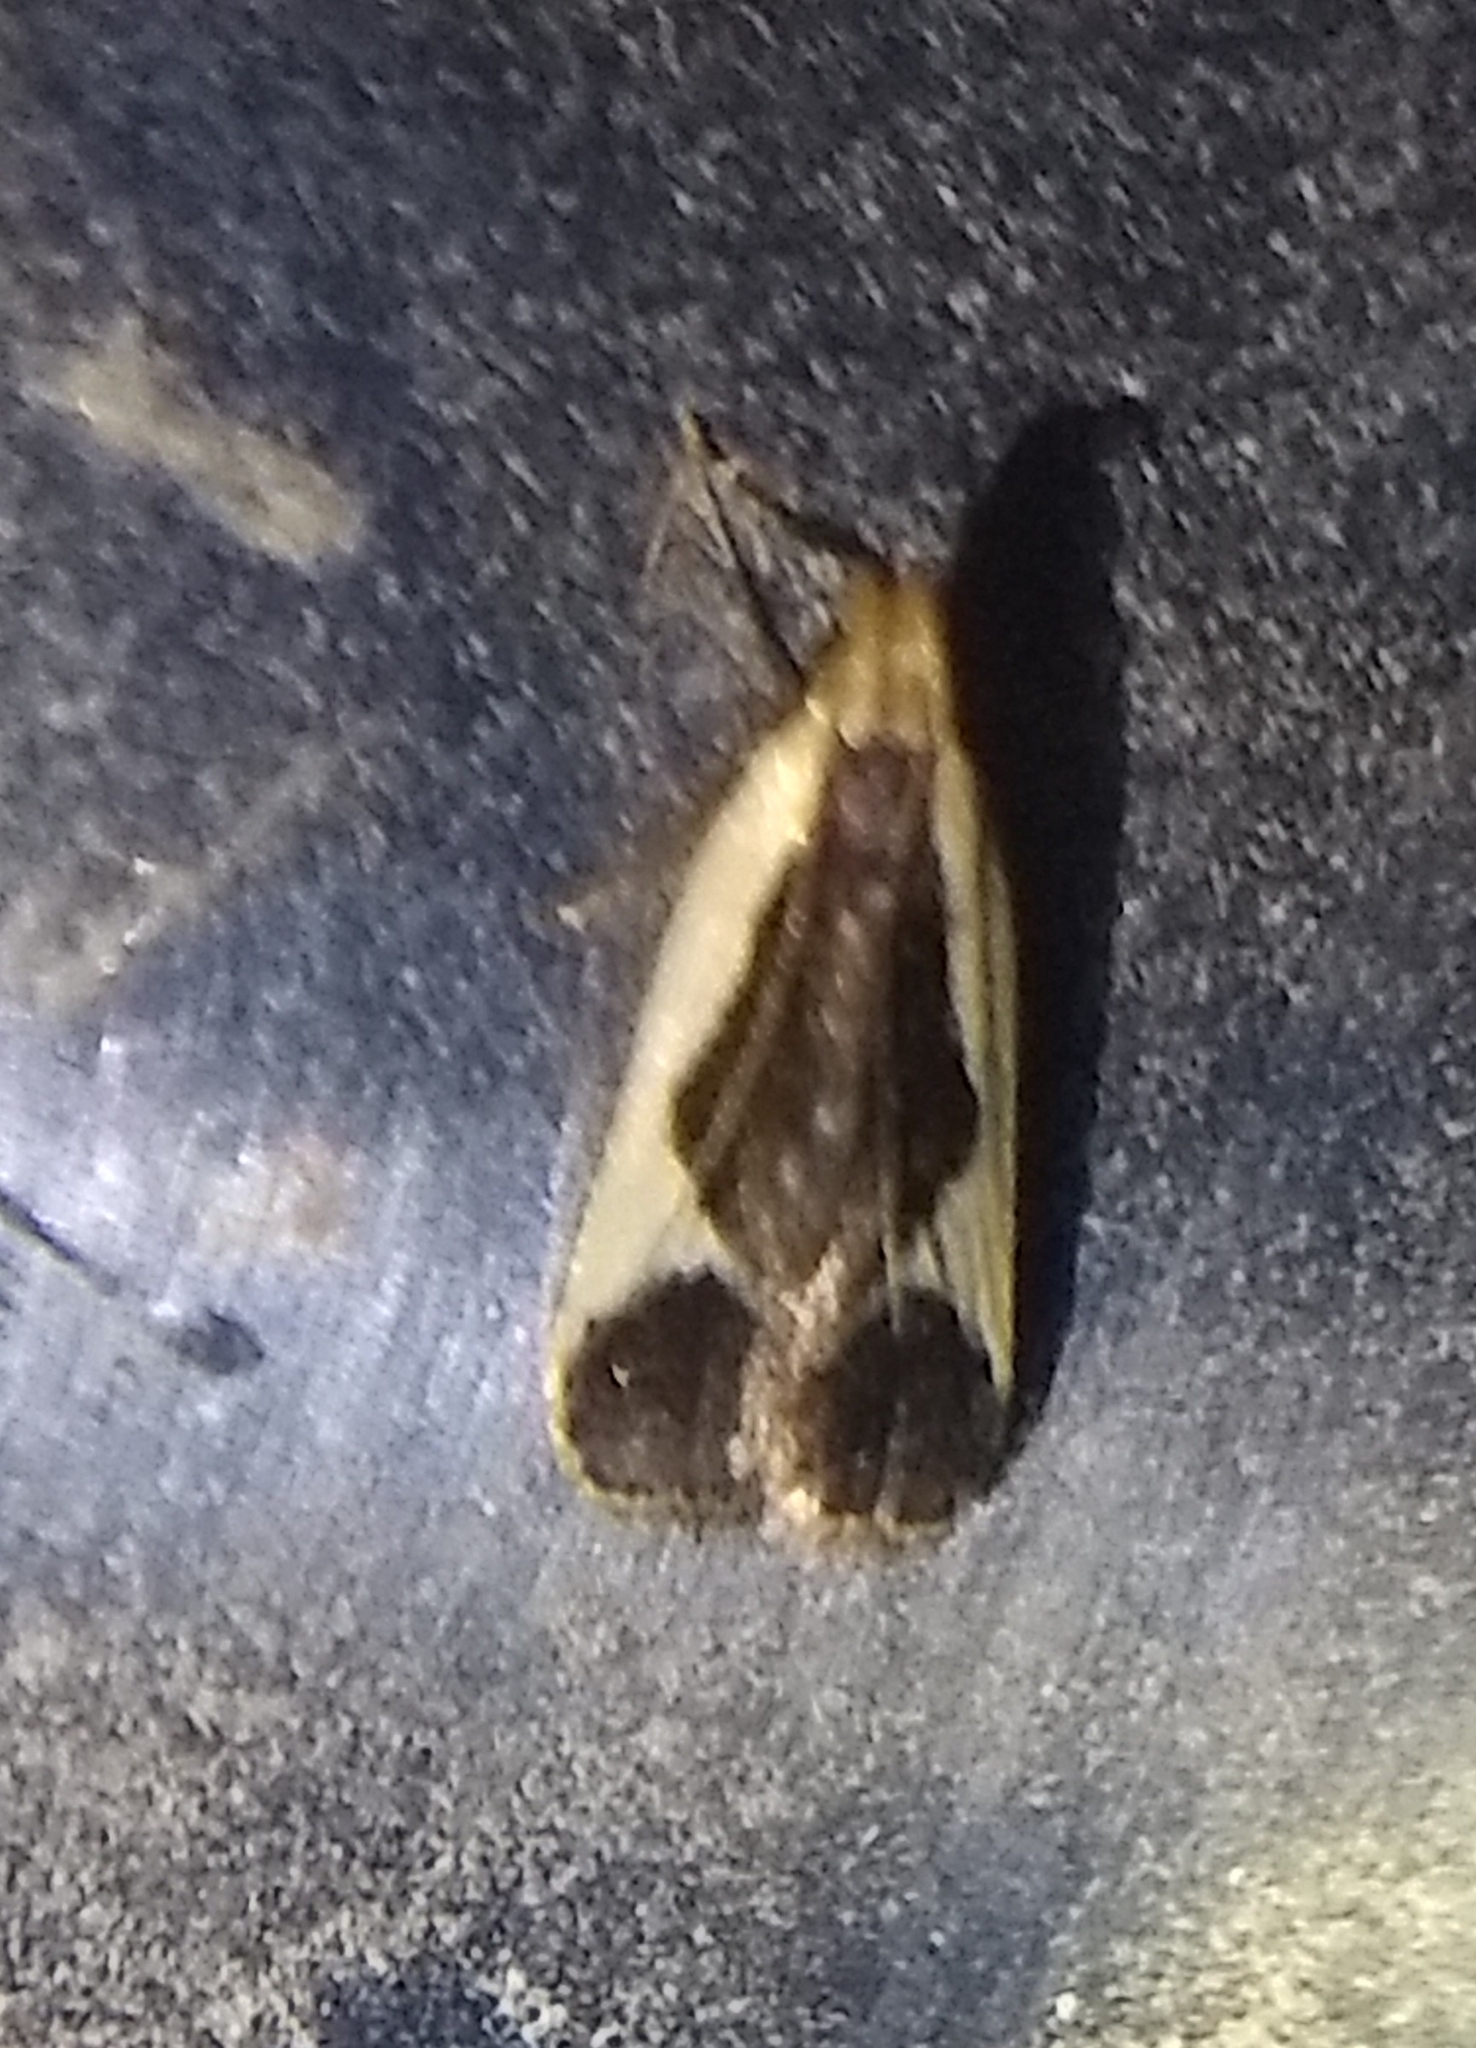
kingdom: Animalia
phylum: Arthropoda
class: Insecta
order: Lepidoptera
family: Gelechiidae
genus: Dichomeris
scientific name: Dichomeris flavocostella
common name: Cream-edged dichomeris moth
